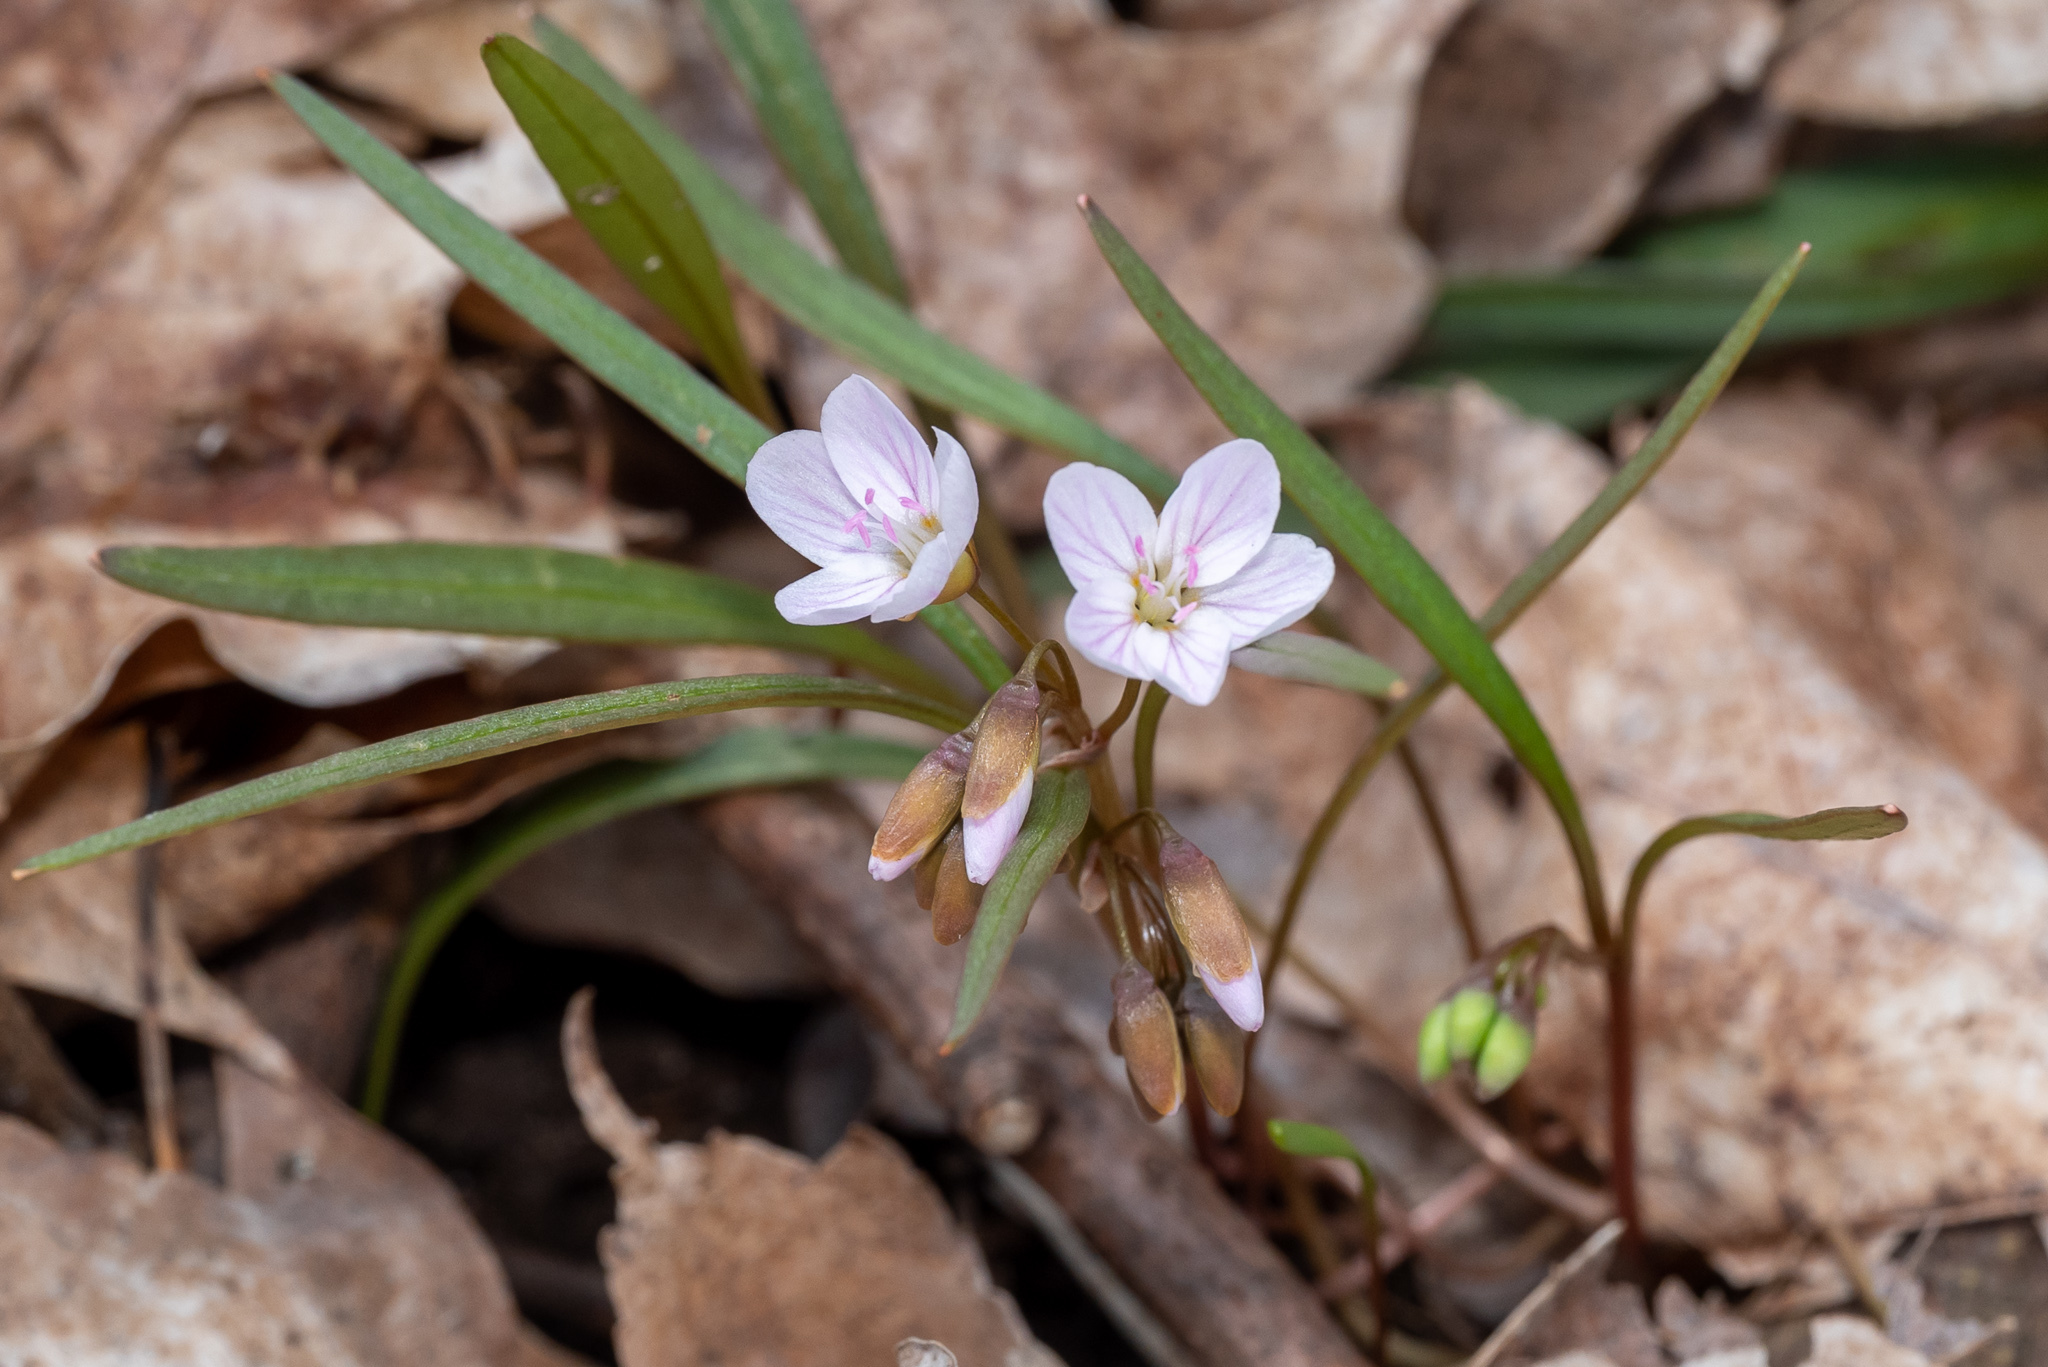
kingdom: Plantae
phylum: Tracheophyta
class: Magnoliopsida
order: Caryophyllales
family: Montiaceae
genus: Claytonia
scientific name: Claytonia virginica
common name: Virginia springbeauty
